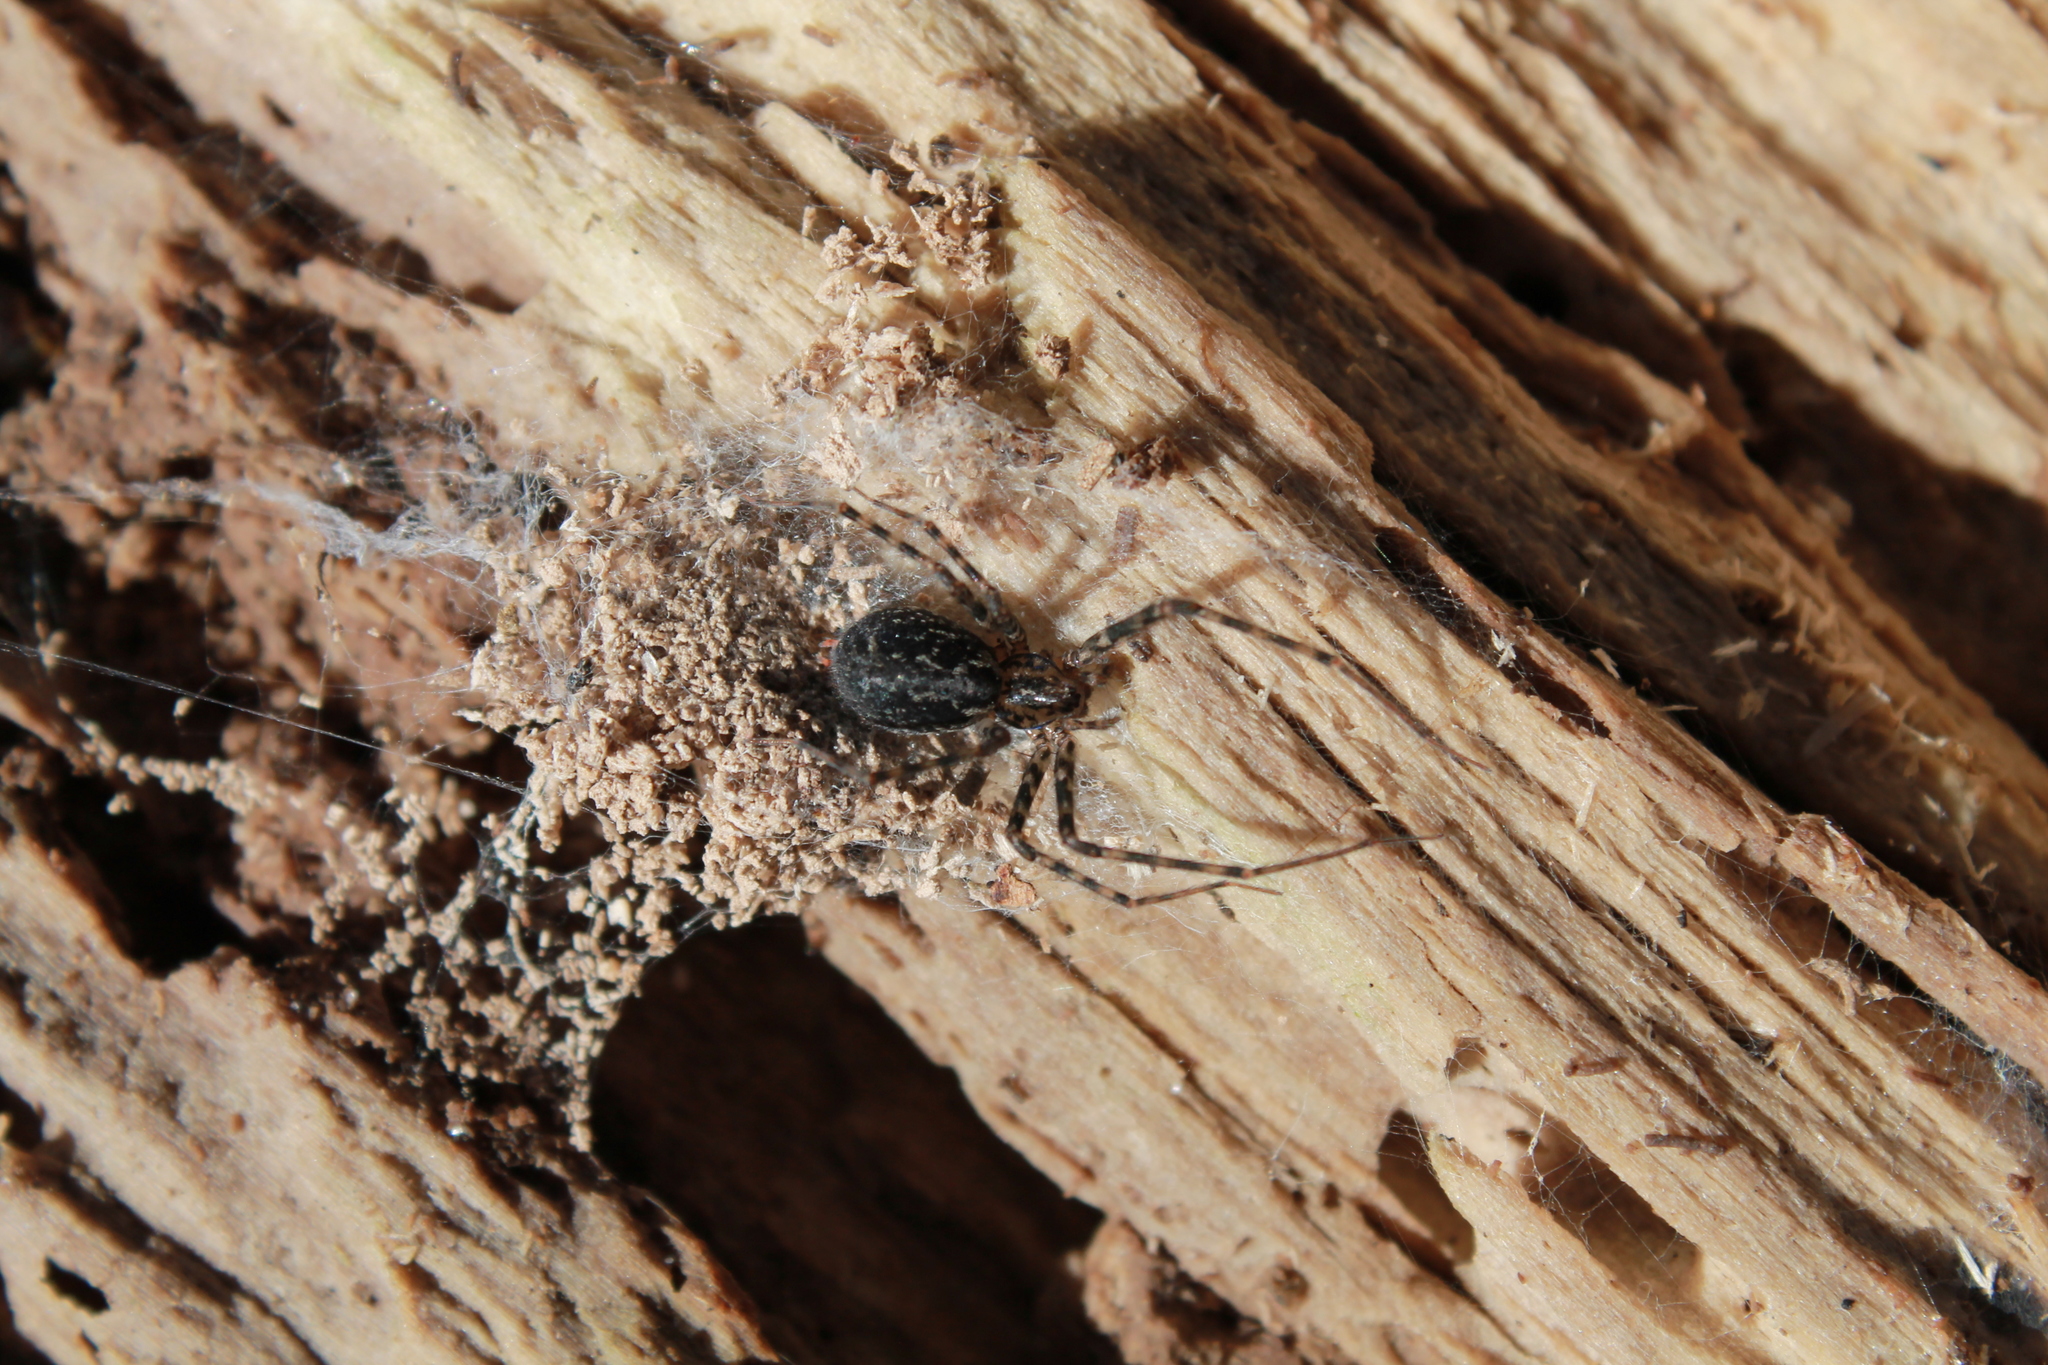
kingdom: Animalia
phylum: Arthropoda
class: Arachnida
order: Araneae
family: Stiphidiidae
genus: Stiphidion
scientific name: Stiphidion facetum
